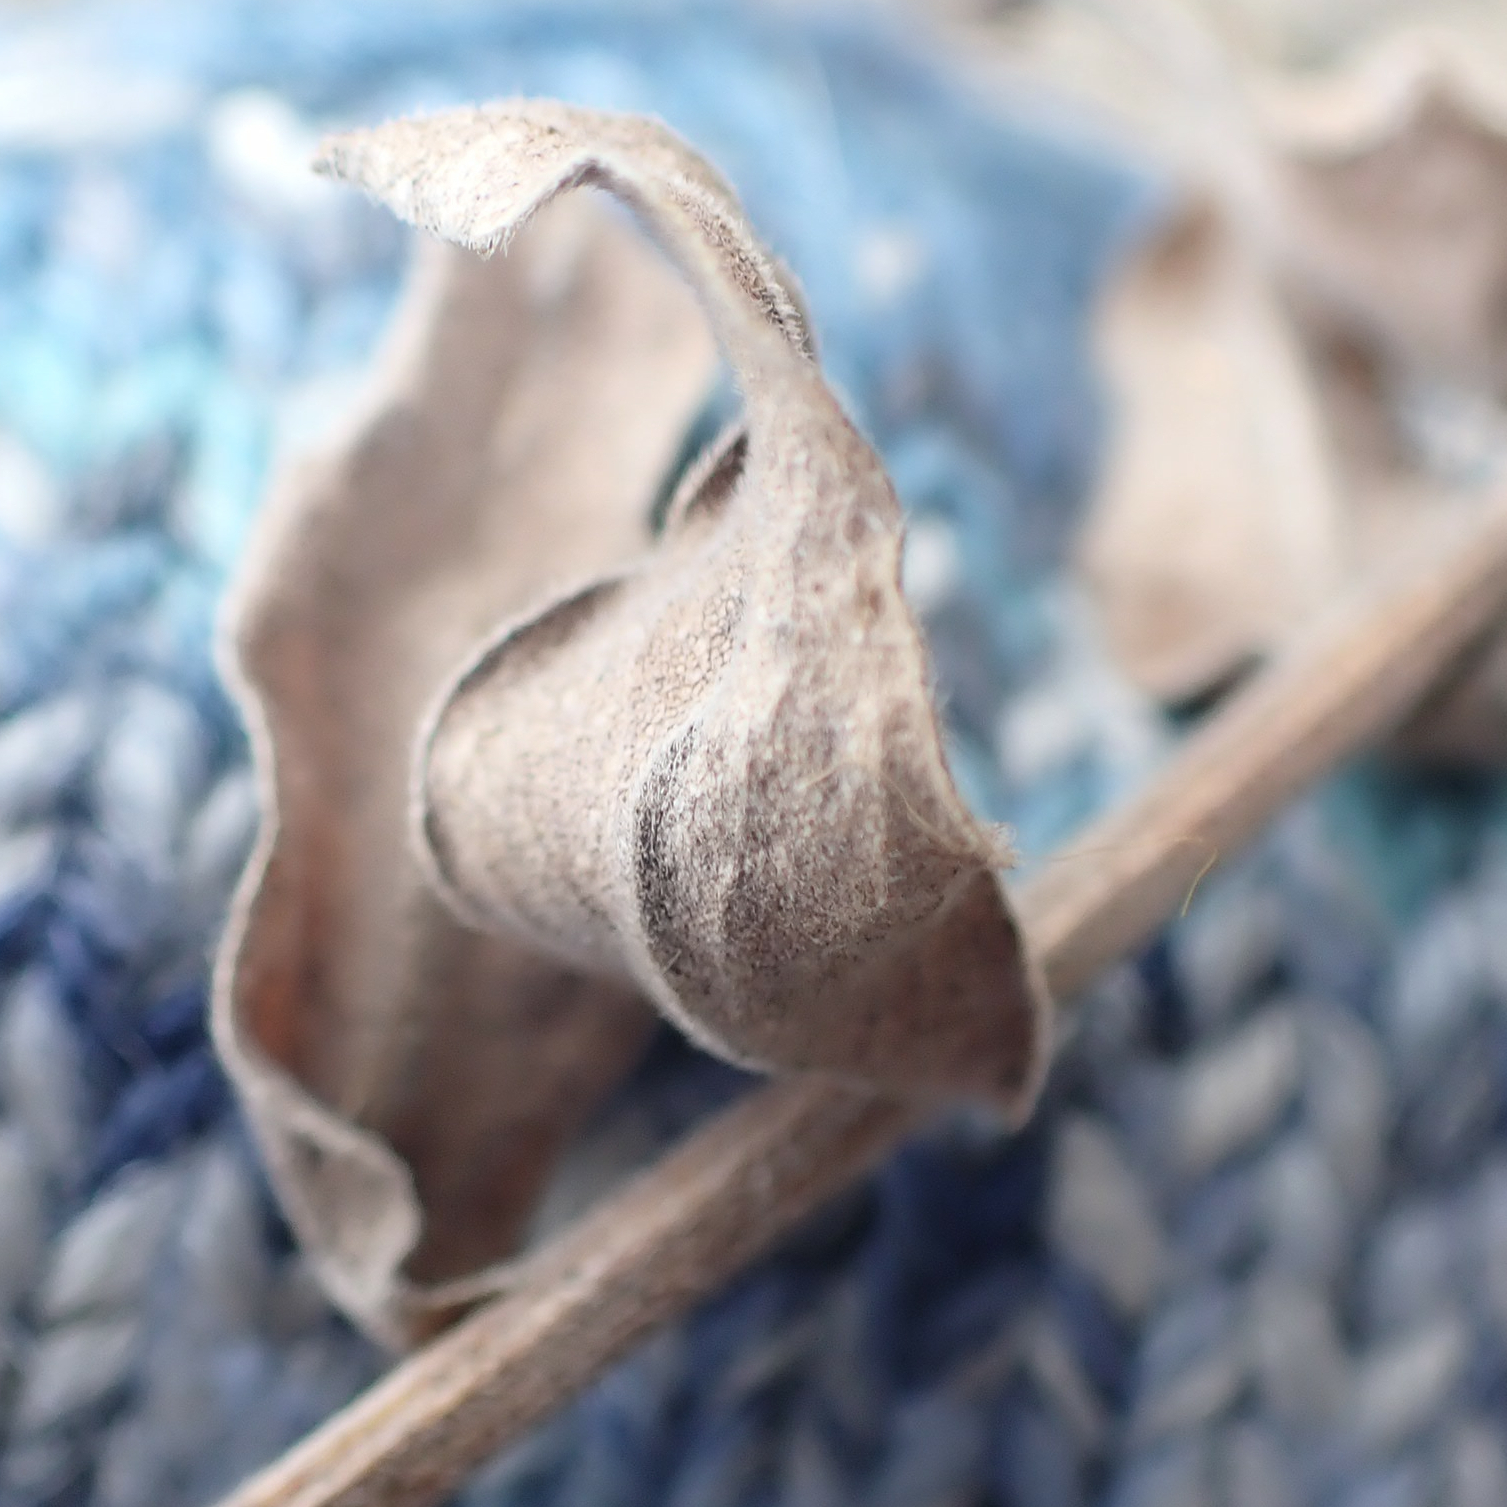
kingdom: Plantae
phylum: Tracheophyta
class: Magnoliopsida
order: Asterales
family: Asteraceae
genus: Solidago
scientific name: Solidago rigida
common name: Rigid goldenrod
